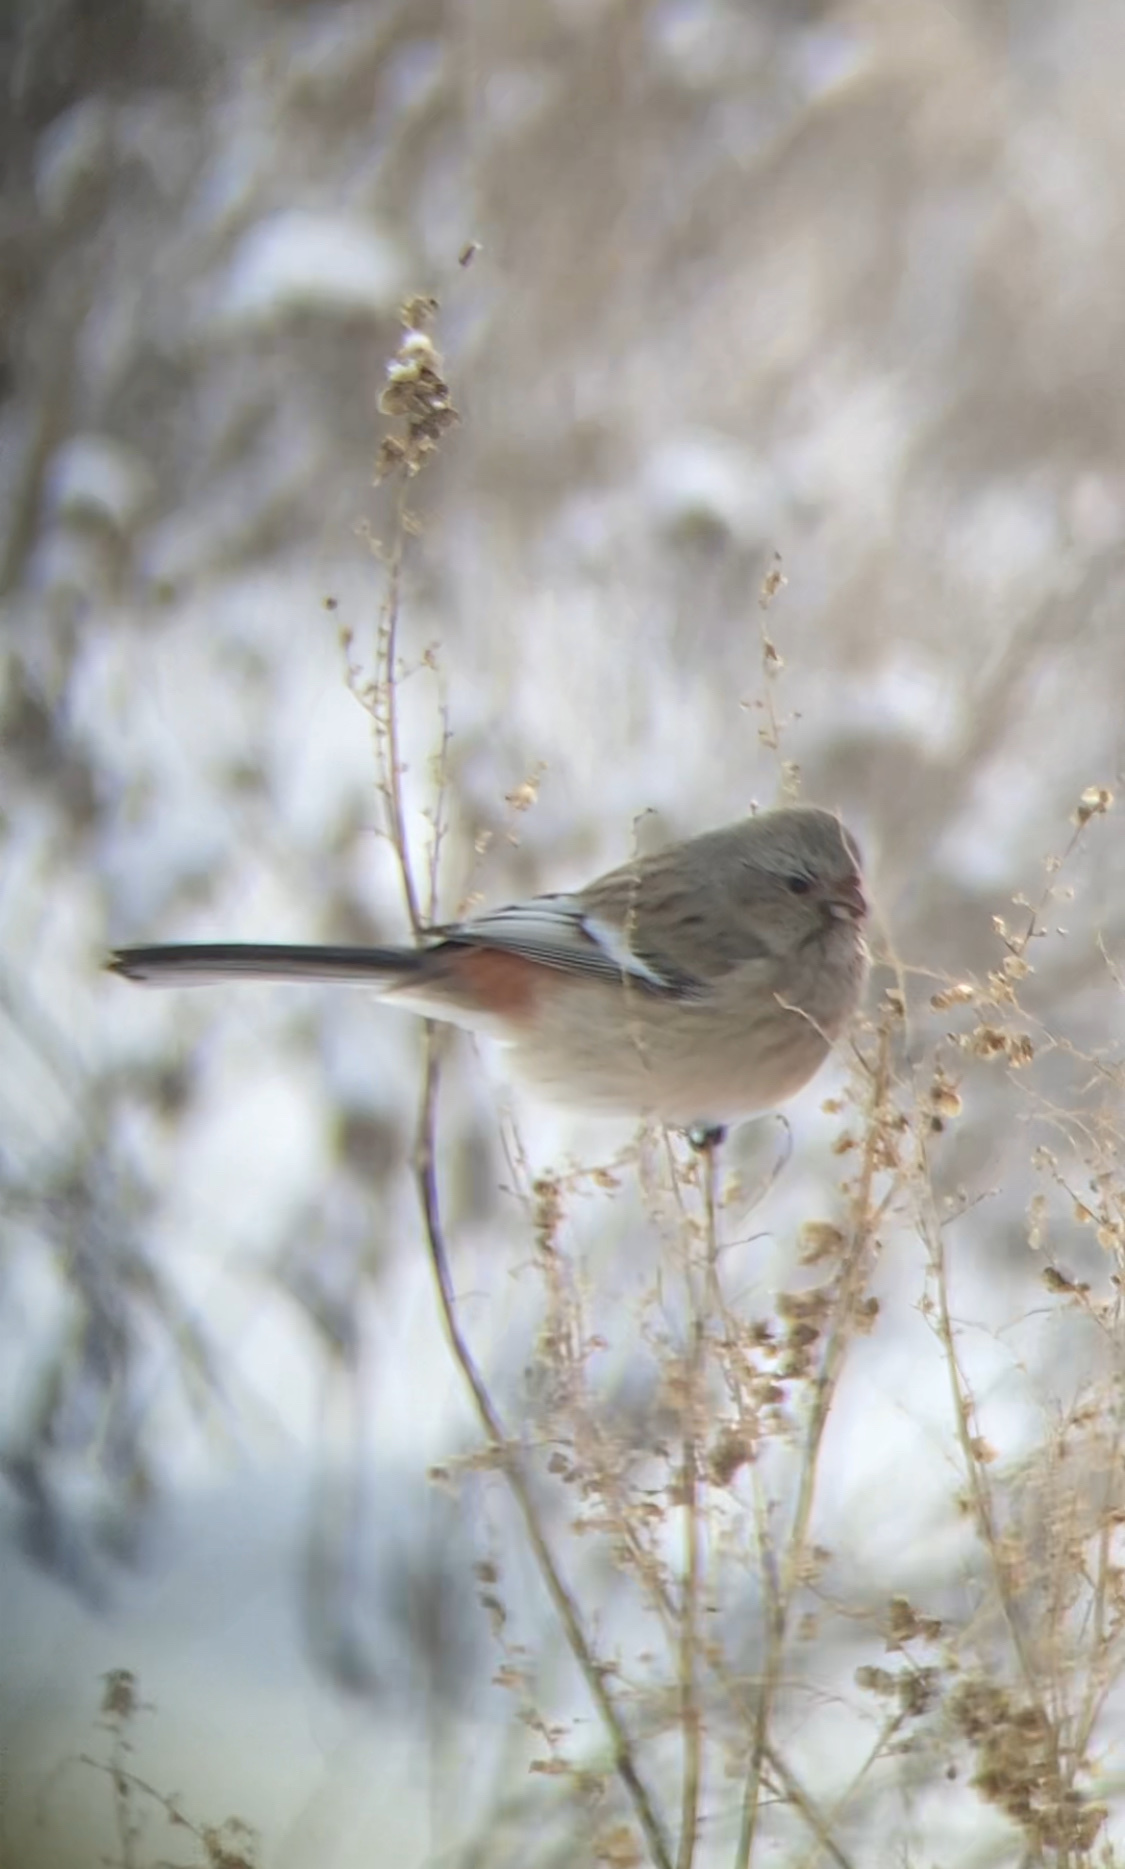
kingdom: Animalia
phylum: Chordata
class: Aves
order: Passeriformes
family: Fringillidae
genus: Carpodacus
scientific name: Carpodacus sibiricus
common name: Long-tailed rosefinch
